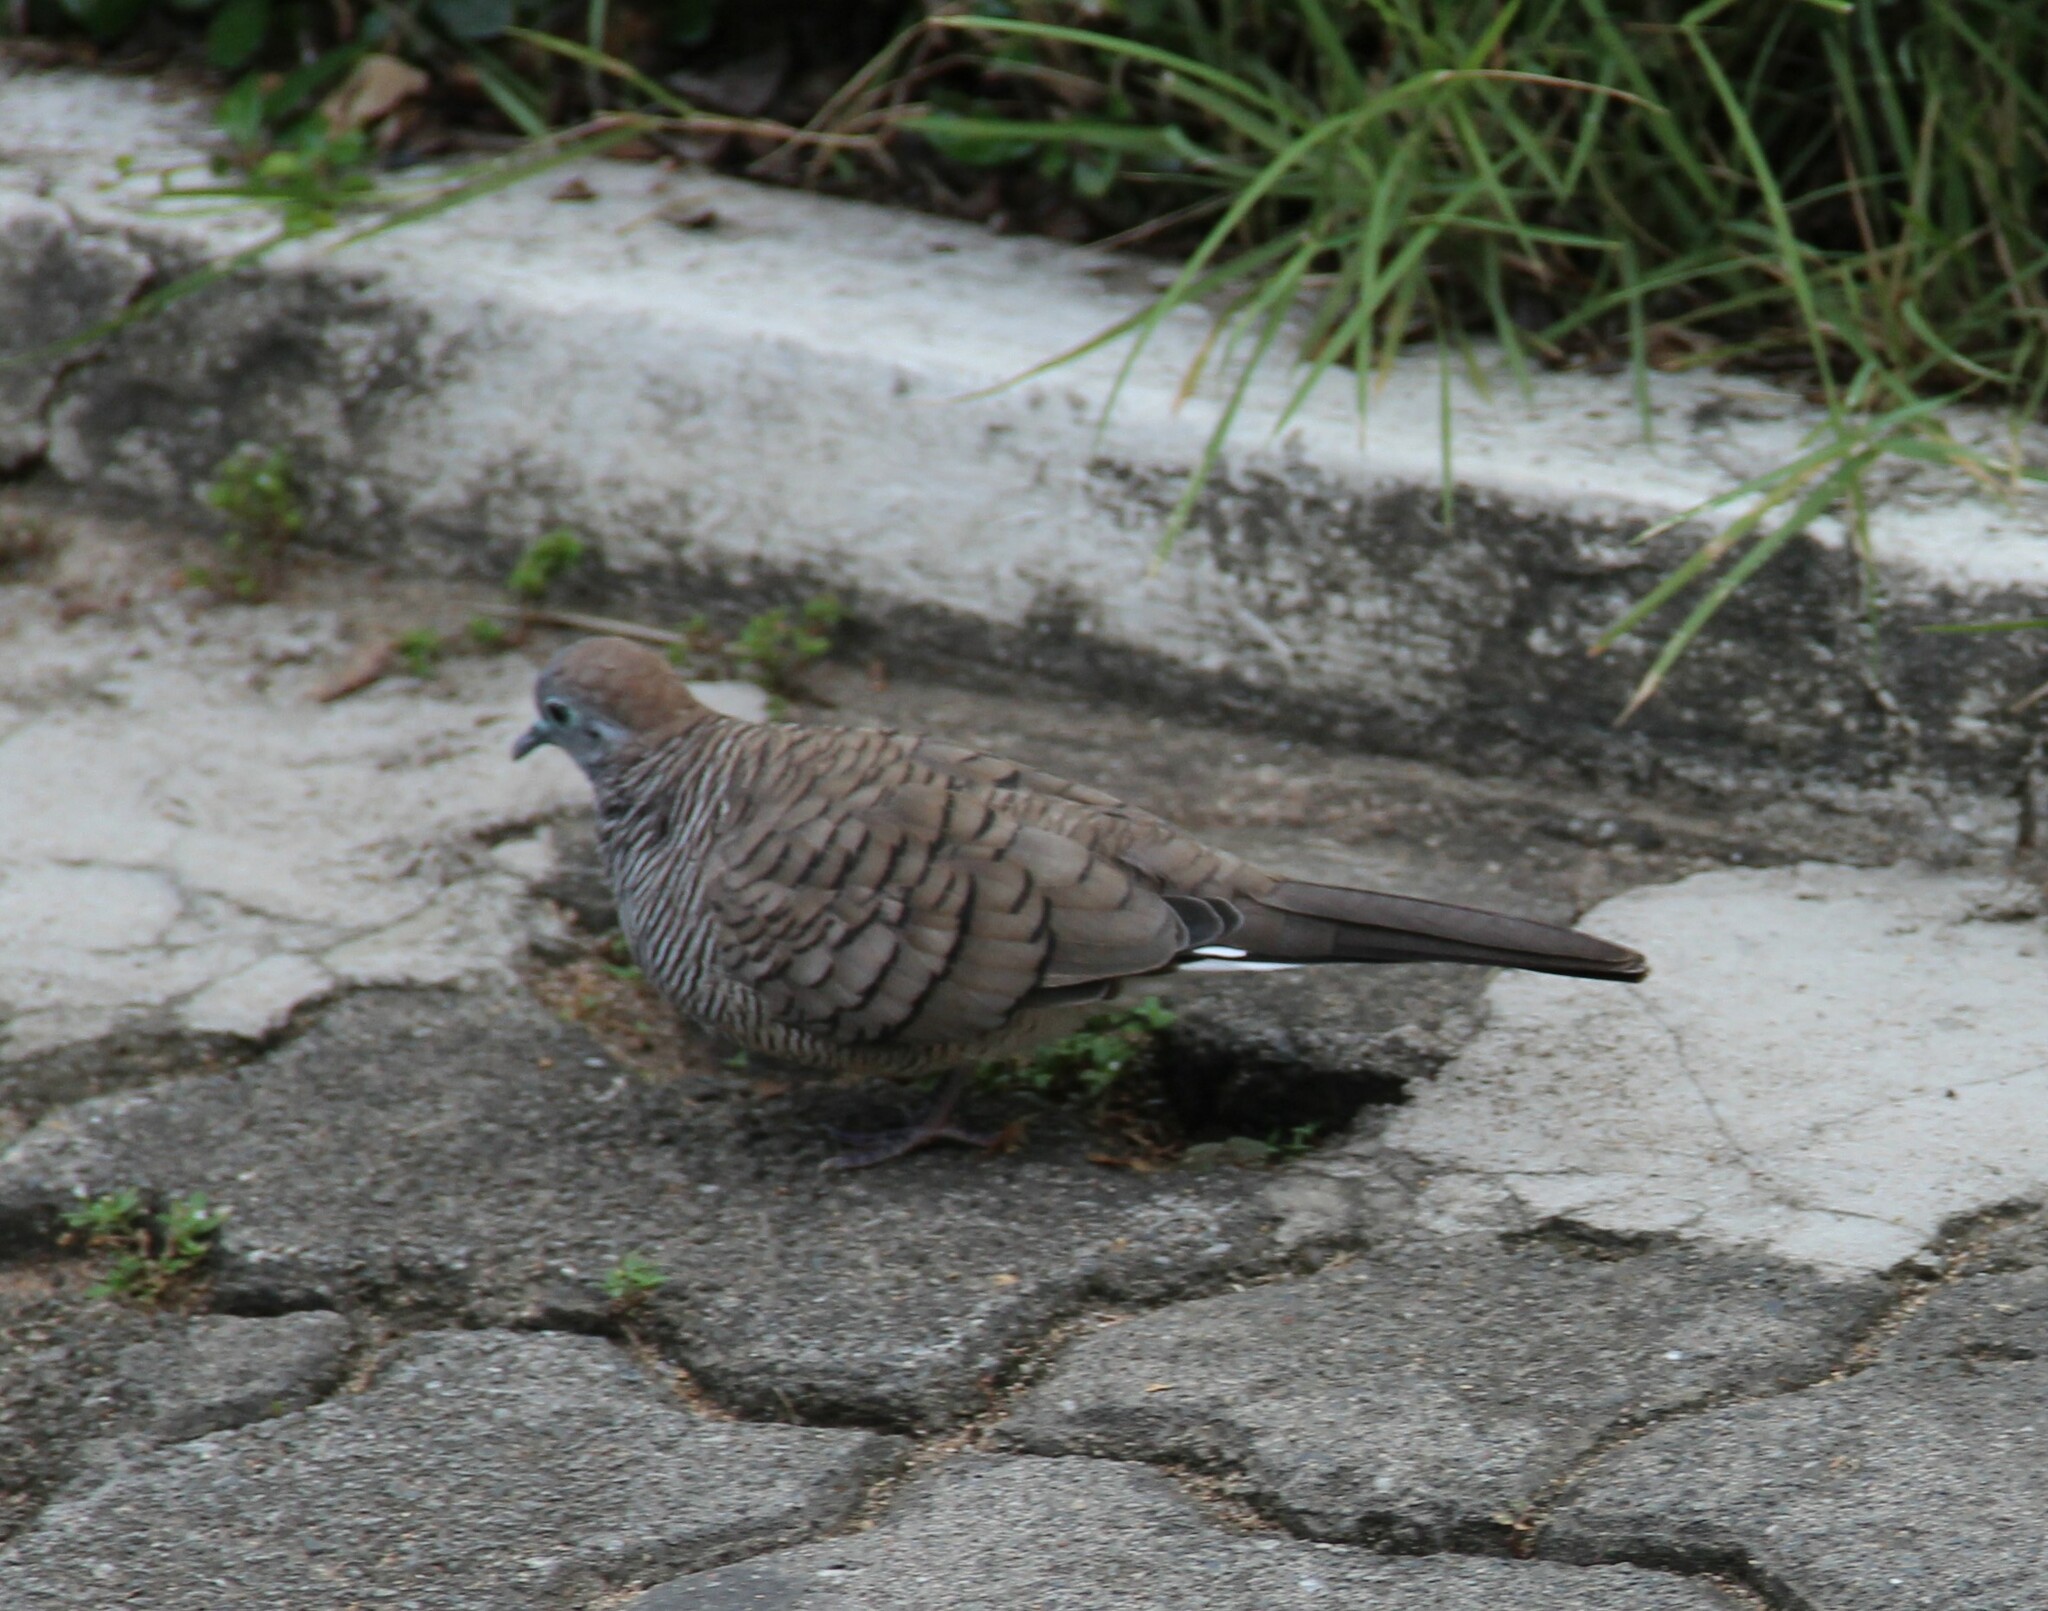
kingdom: Animalia
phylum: Chordata
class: Aves
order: Columbiformes
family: Columbidae
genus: Geopelia
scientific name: Geopelia striata
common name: Zebra dove
